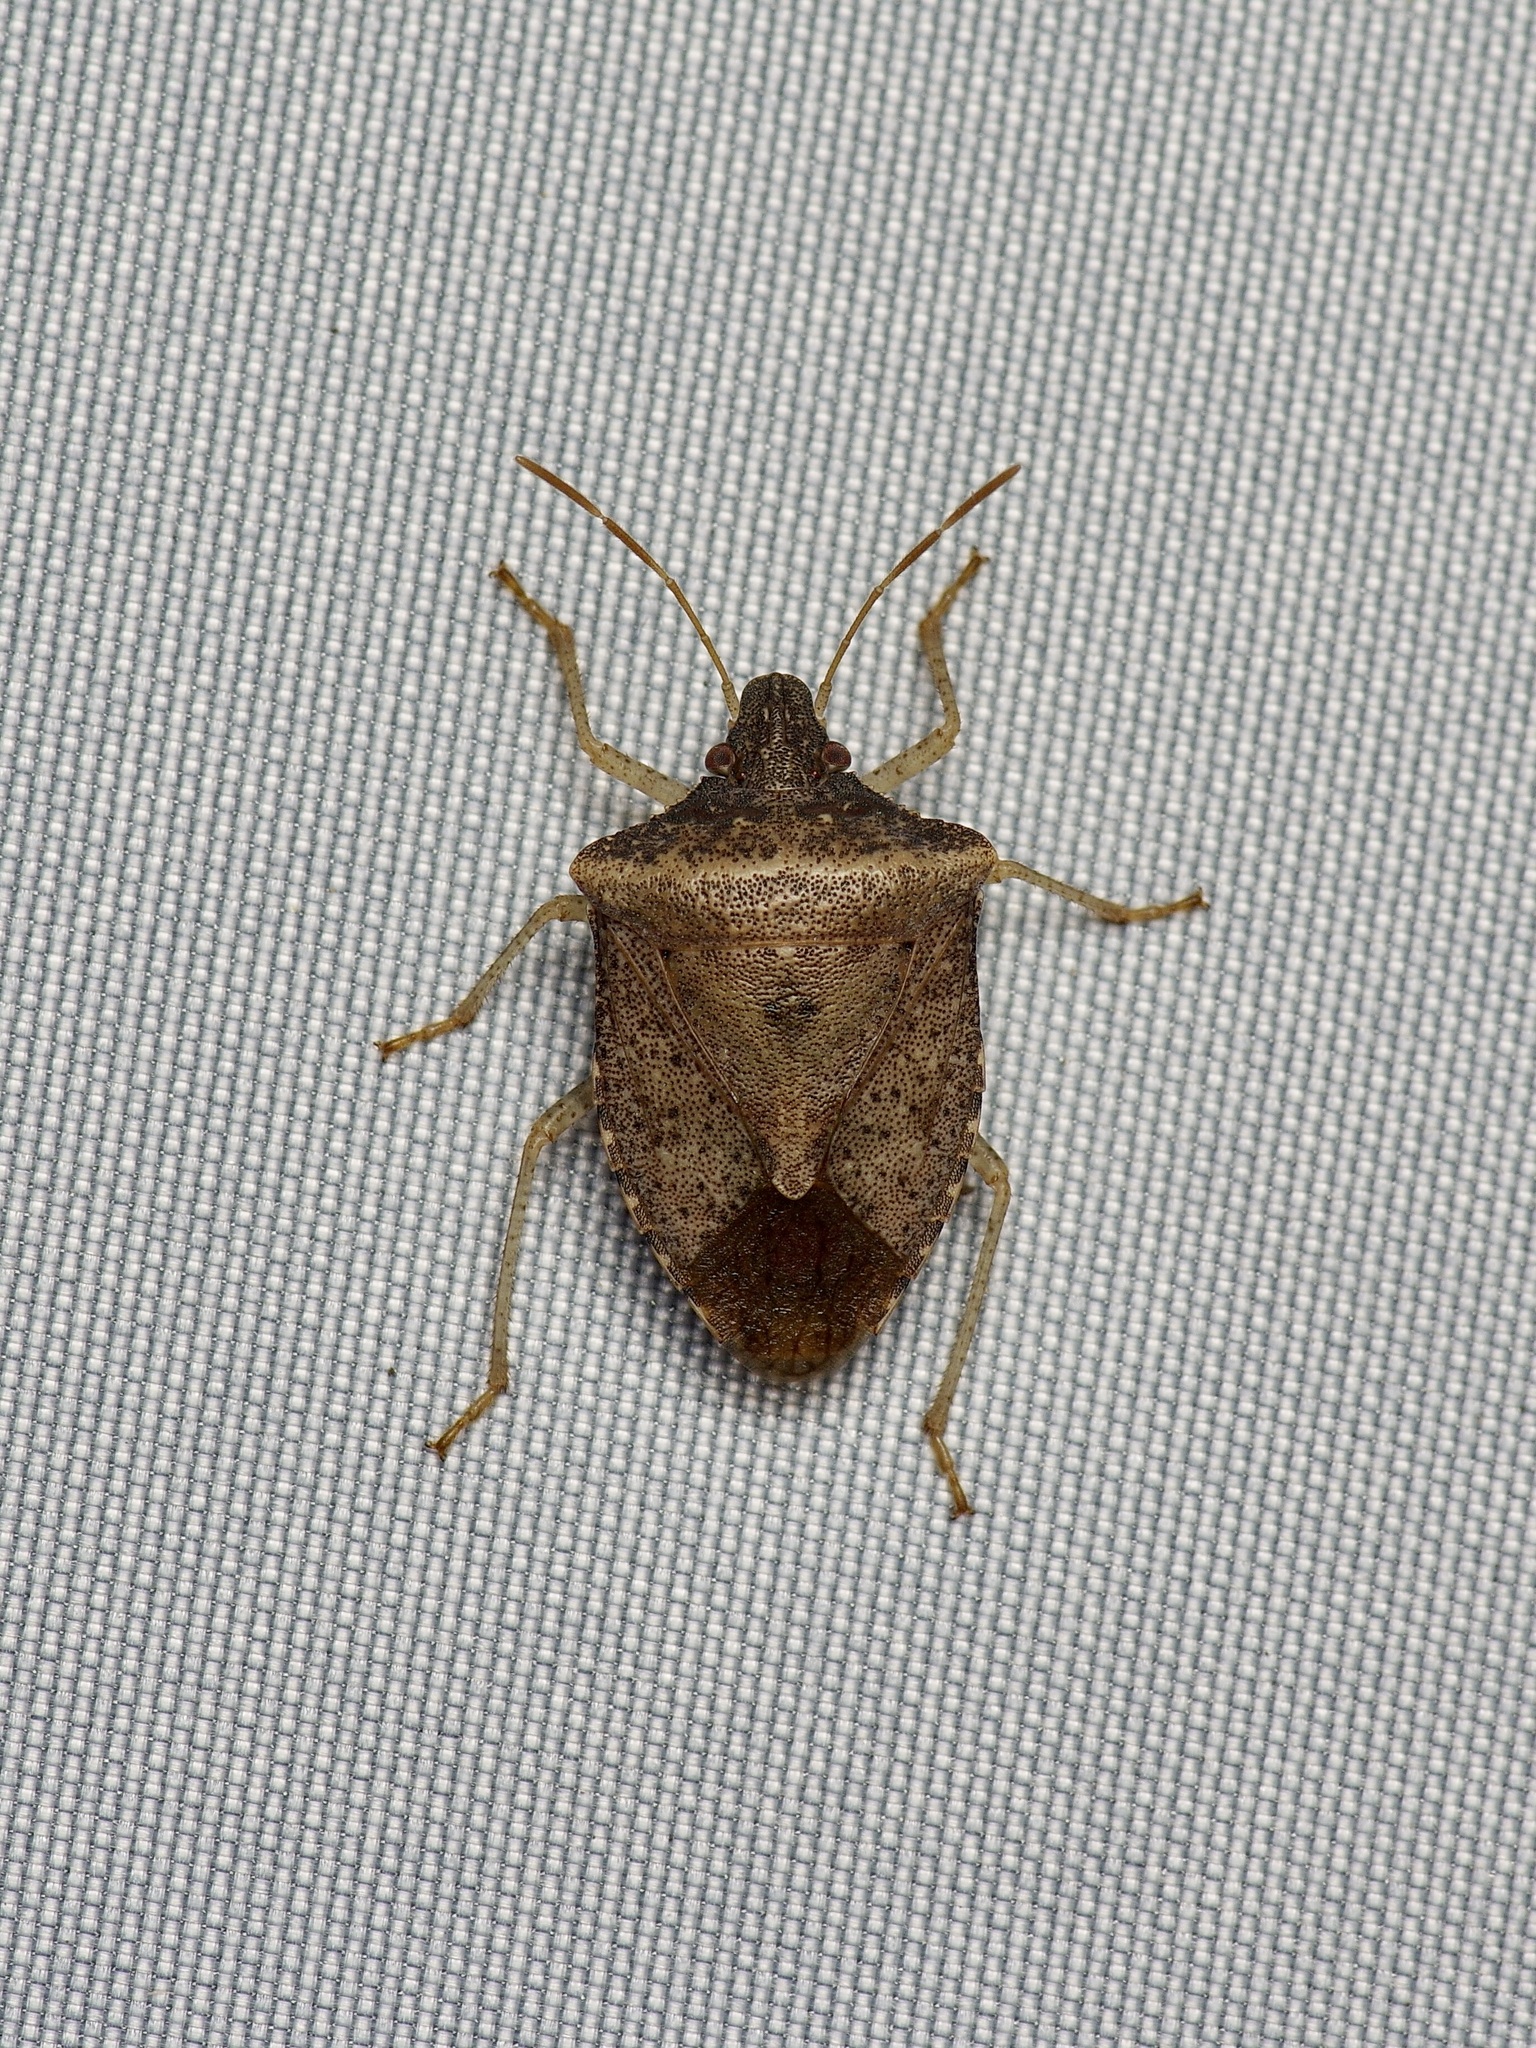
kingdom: Animalia
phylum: Arthropoda
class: Insecta
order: Hemiptera
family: Pentatomidae
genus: Euschistus
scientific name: Euschistus obscurus
